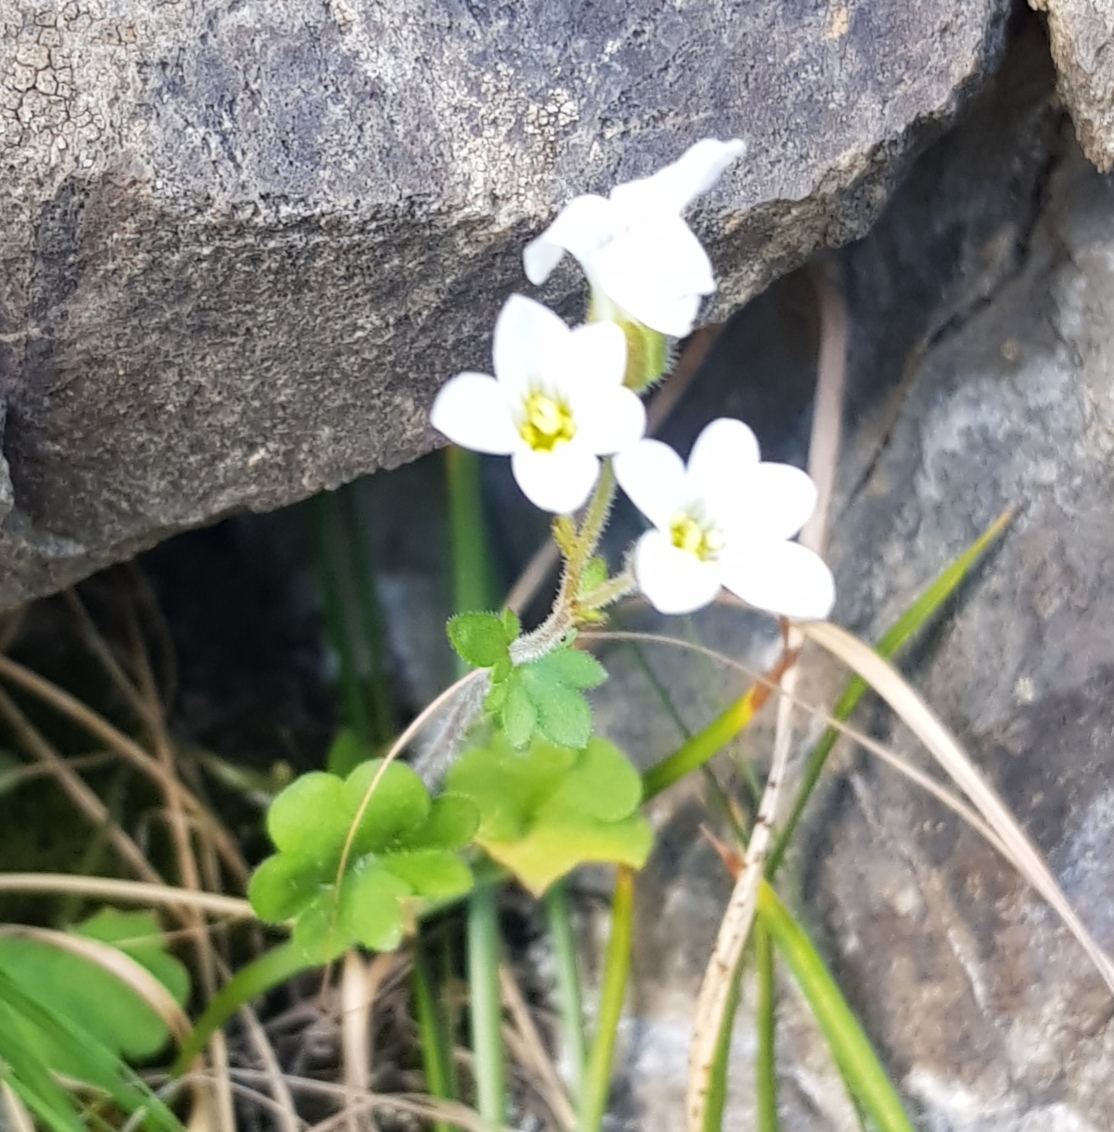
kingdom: Plantae
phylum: Tracheophyta
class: Magnoliopsida
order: Saxifragales
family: Saxifragaceae
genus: Saxifraga
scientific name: Saxifraga sibirica
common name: Siberian saxifrage
